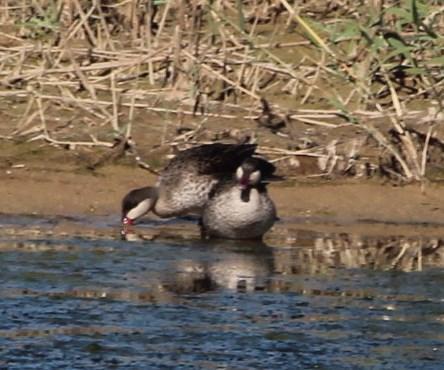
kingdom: Animalia
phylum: Chordata
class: Aves
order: Anseriformes
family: Anatidae
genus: Anas
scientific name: Anas erythrorhyncha
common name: Red-billed teal
